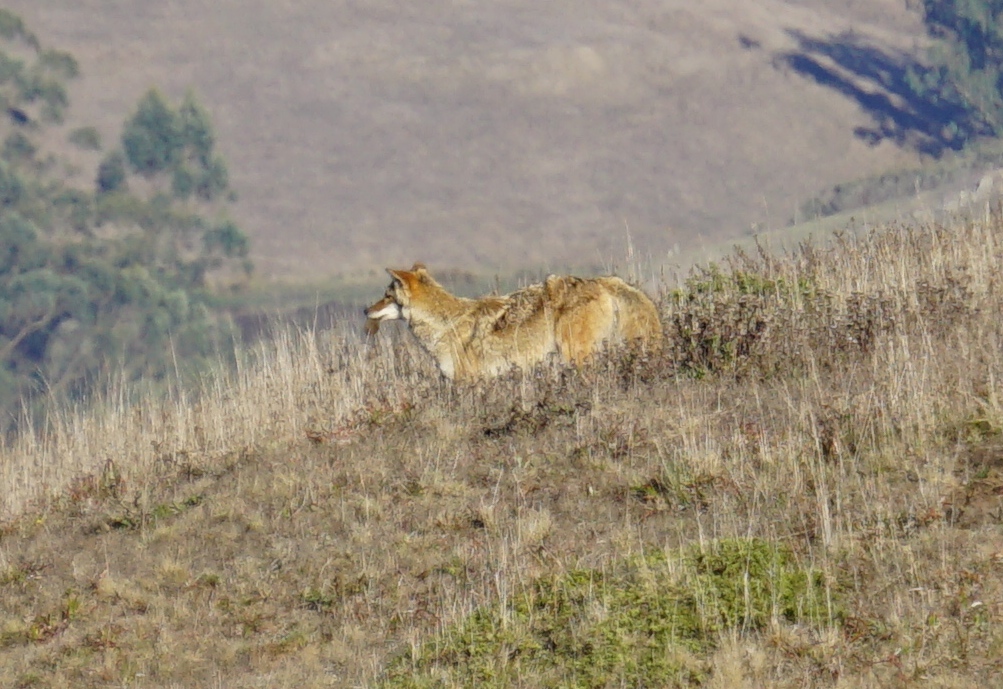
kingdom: Animalia
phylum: Chordata
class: Mammalia
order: Carnivora
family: Canidae
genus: Canis
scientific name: Canis latrans
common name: Coyote
